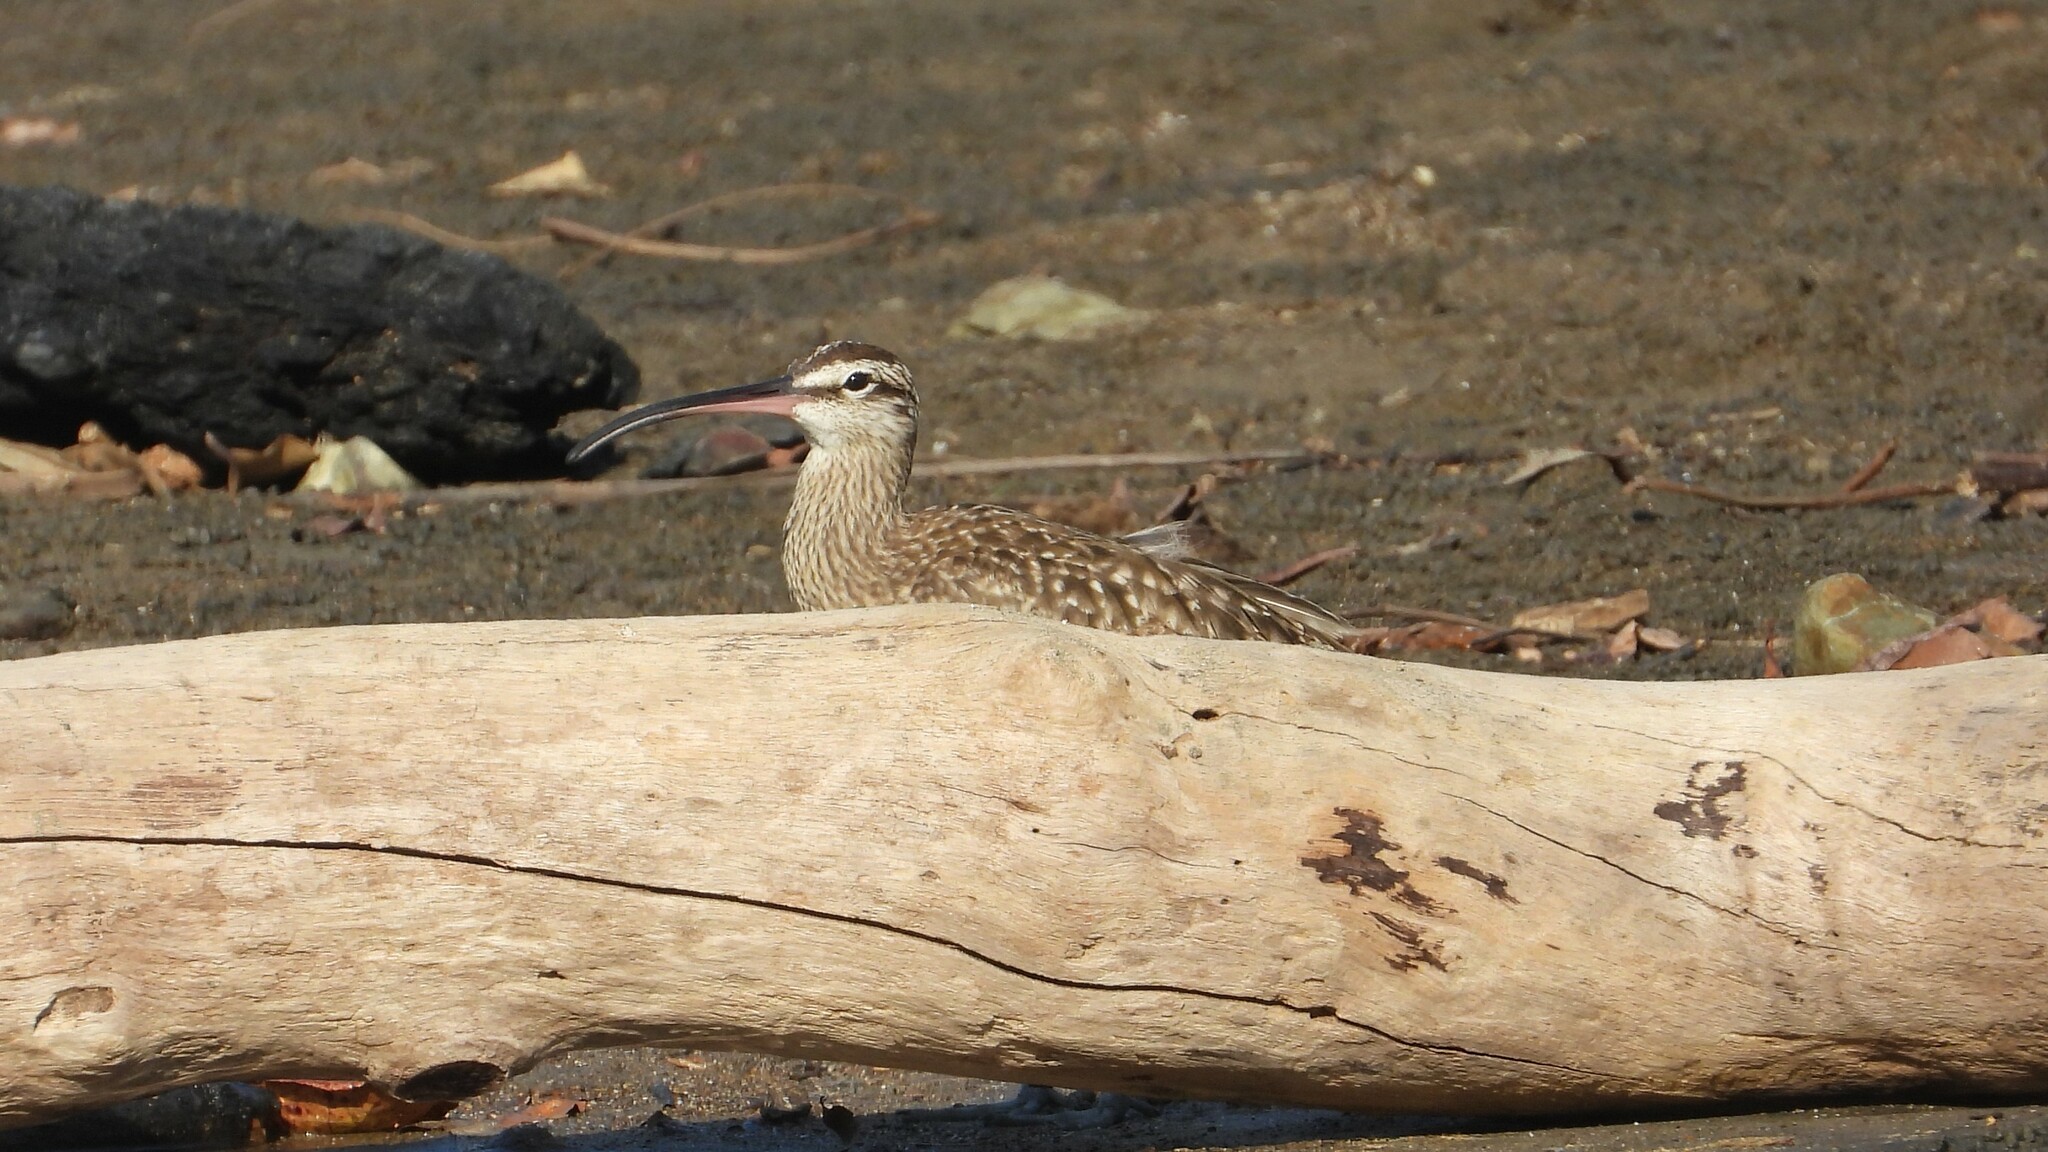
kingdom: Animalia
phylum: Chordata
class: Aves
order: Charadriiformes
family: Scolopacidae
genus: Numenius
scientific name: Numenius phaeopus
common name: Whimbrel
